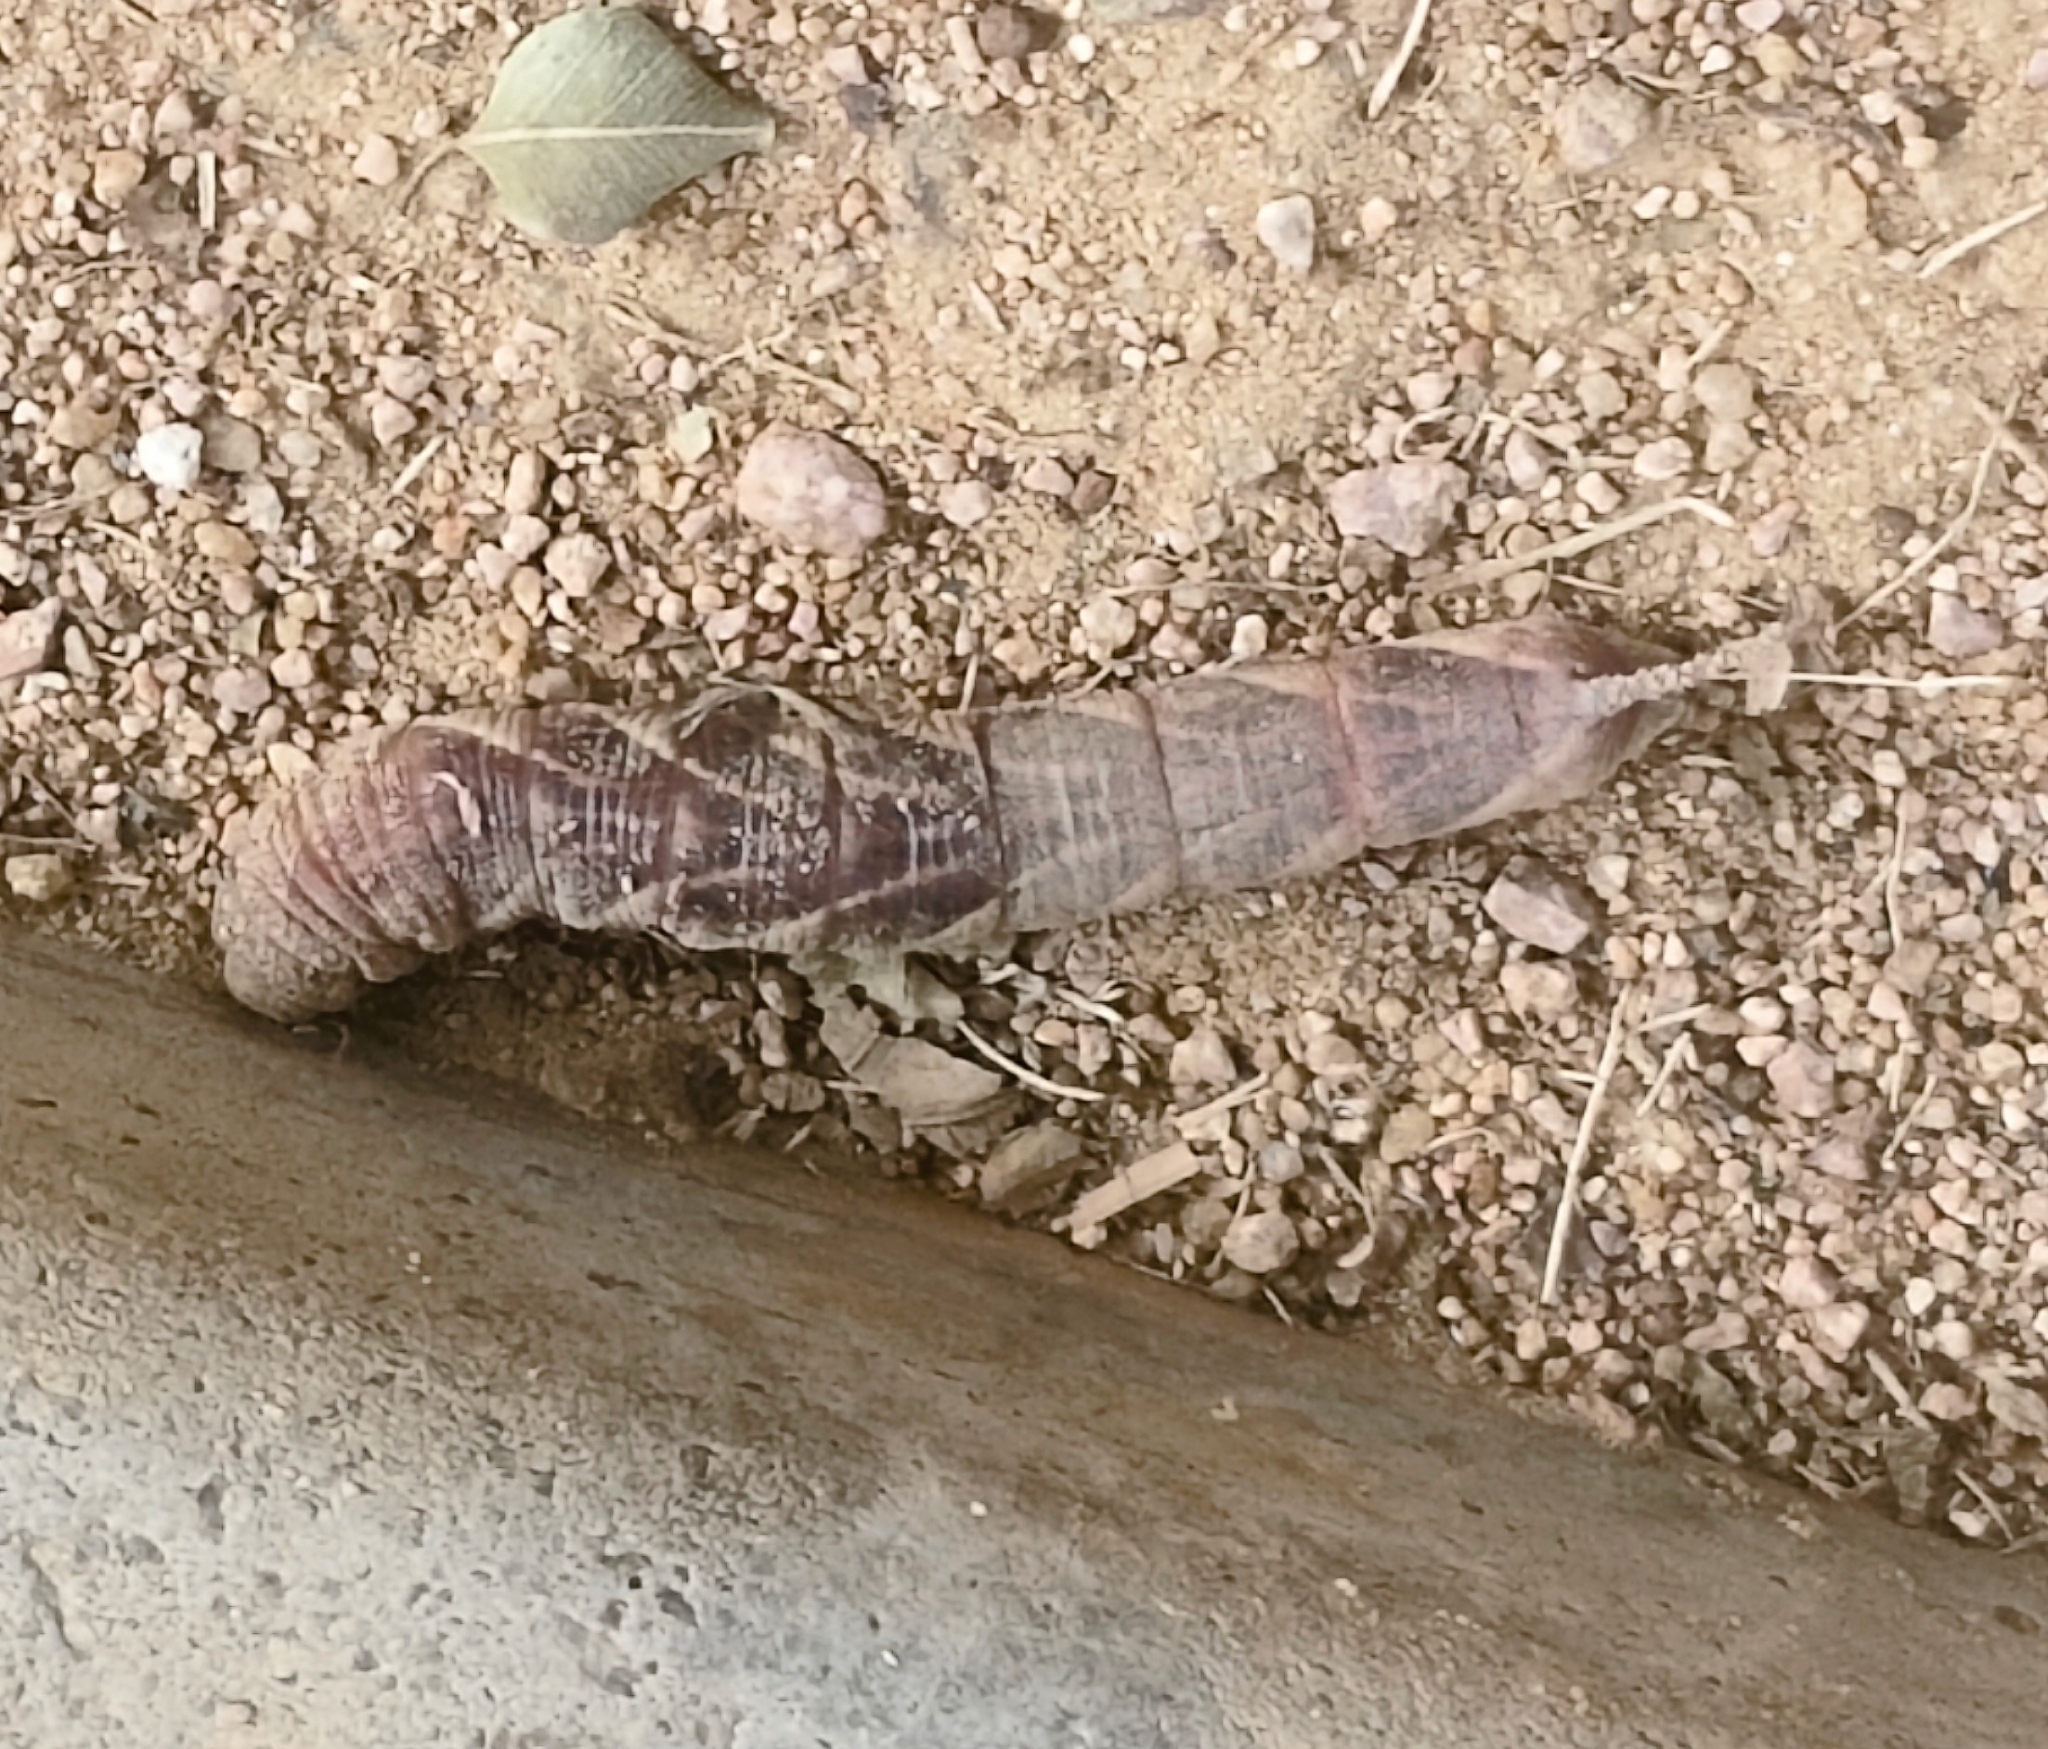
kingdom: Animalia
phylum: Arthropoda
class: Insecta
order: Lepidoptera
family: Sphingidae
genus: Psilogramma
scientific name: Psilogramma increta
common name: Gray hawk moth
